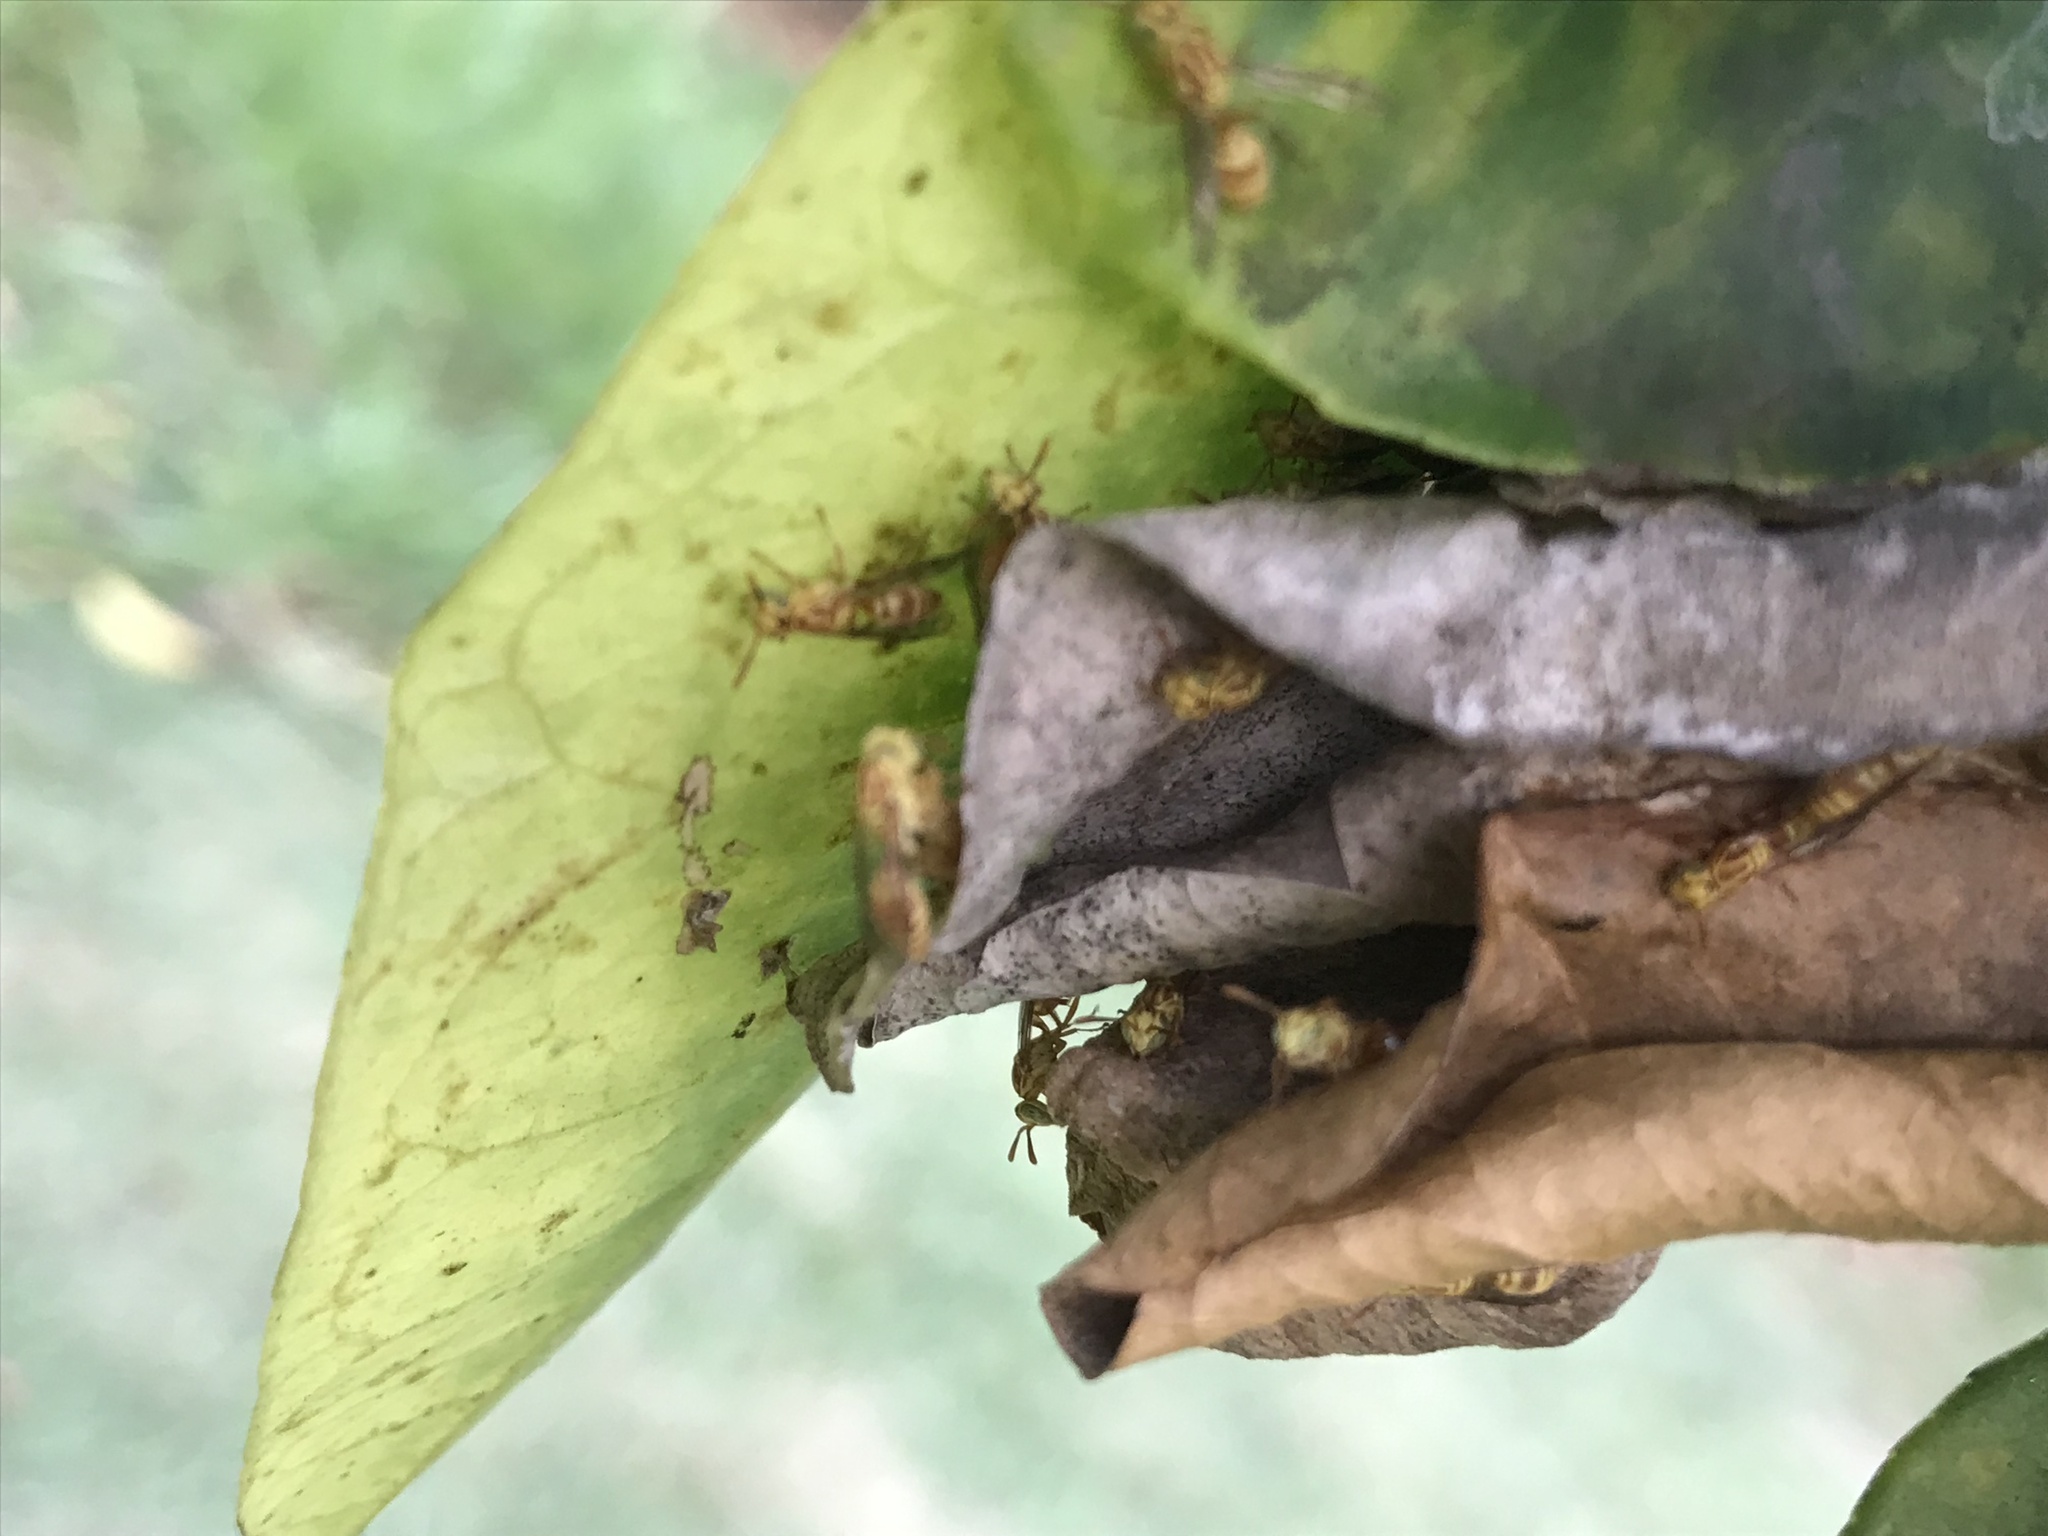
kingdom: Animalia
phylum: Arthropoda
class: Insecta
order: Hymenoptera
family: Vespidae
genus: Protopolybia
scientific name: Protopolybia potiguara
